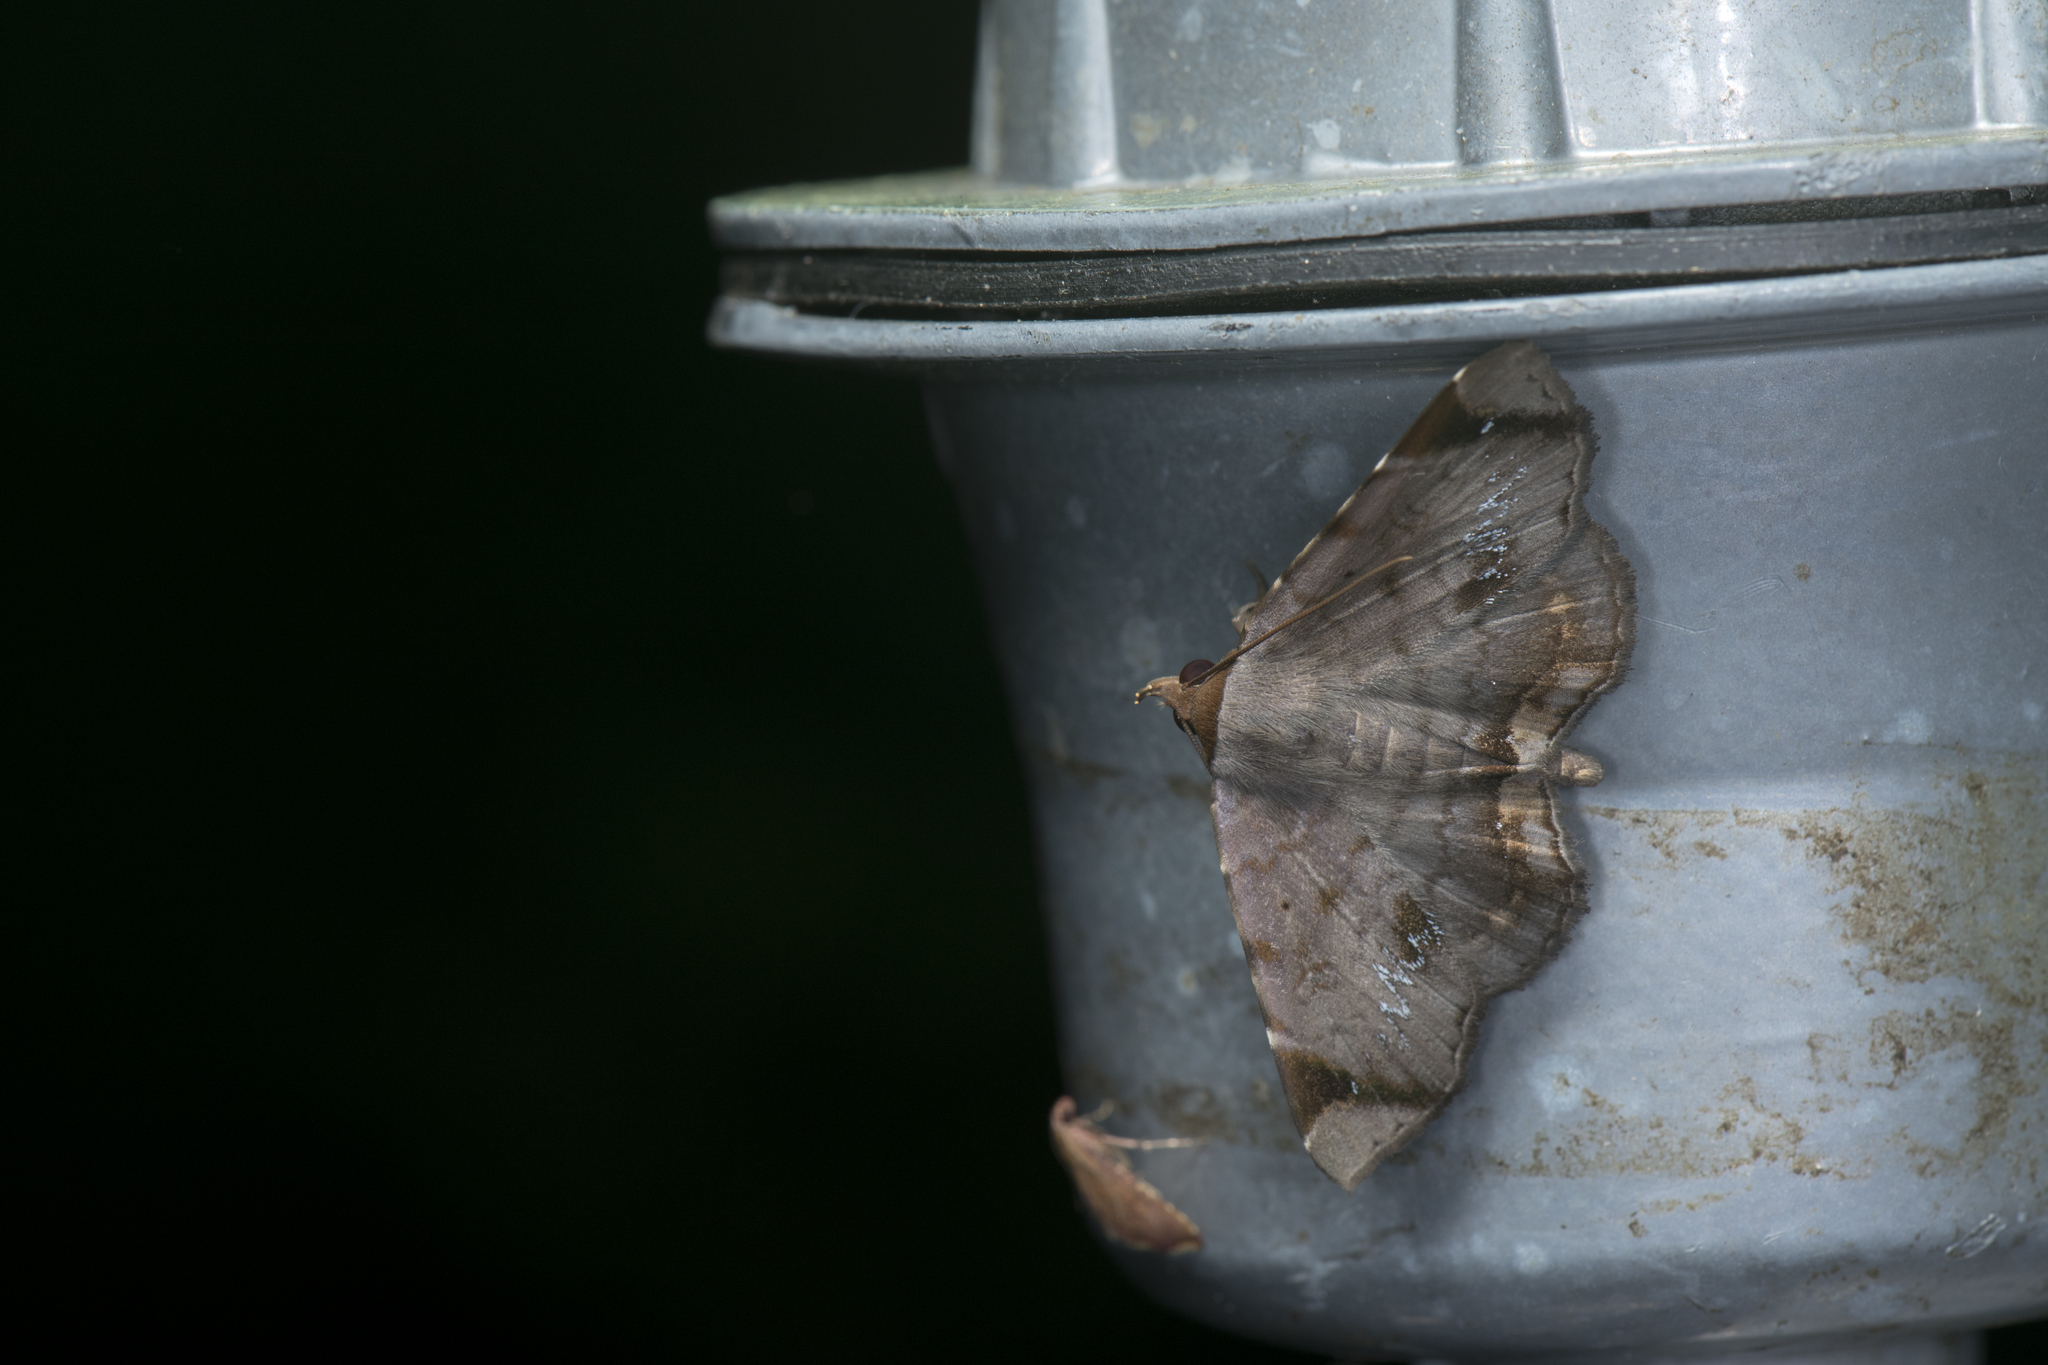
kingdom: Animalia
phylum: Arthropoda
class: Insecta
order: Lepidoptera
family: Erebidae
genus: Mecodina
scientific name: Mecodina albodentata
